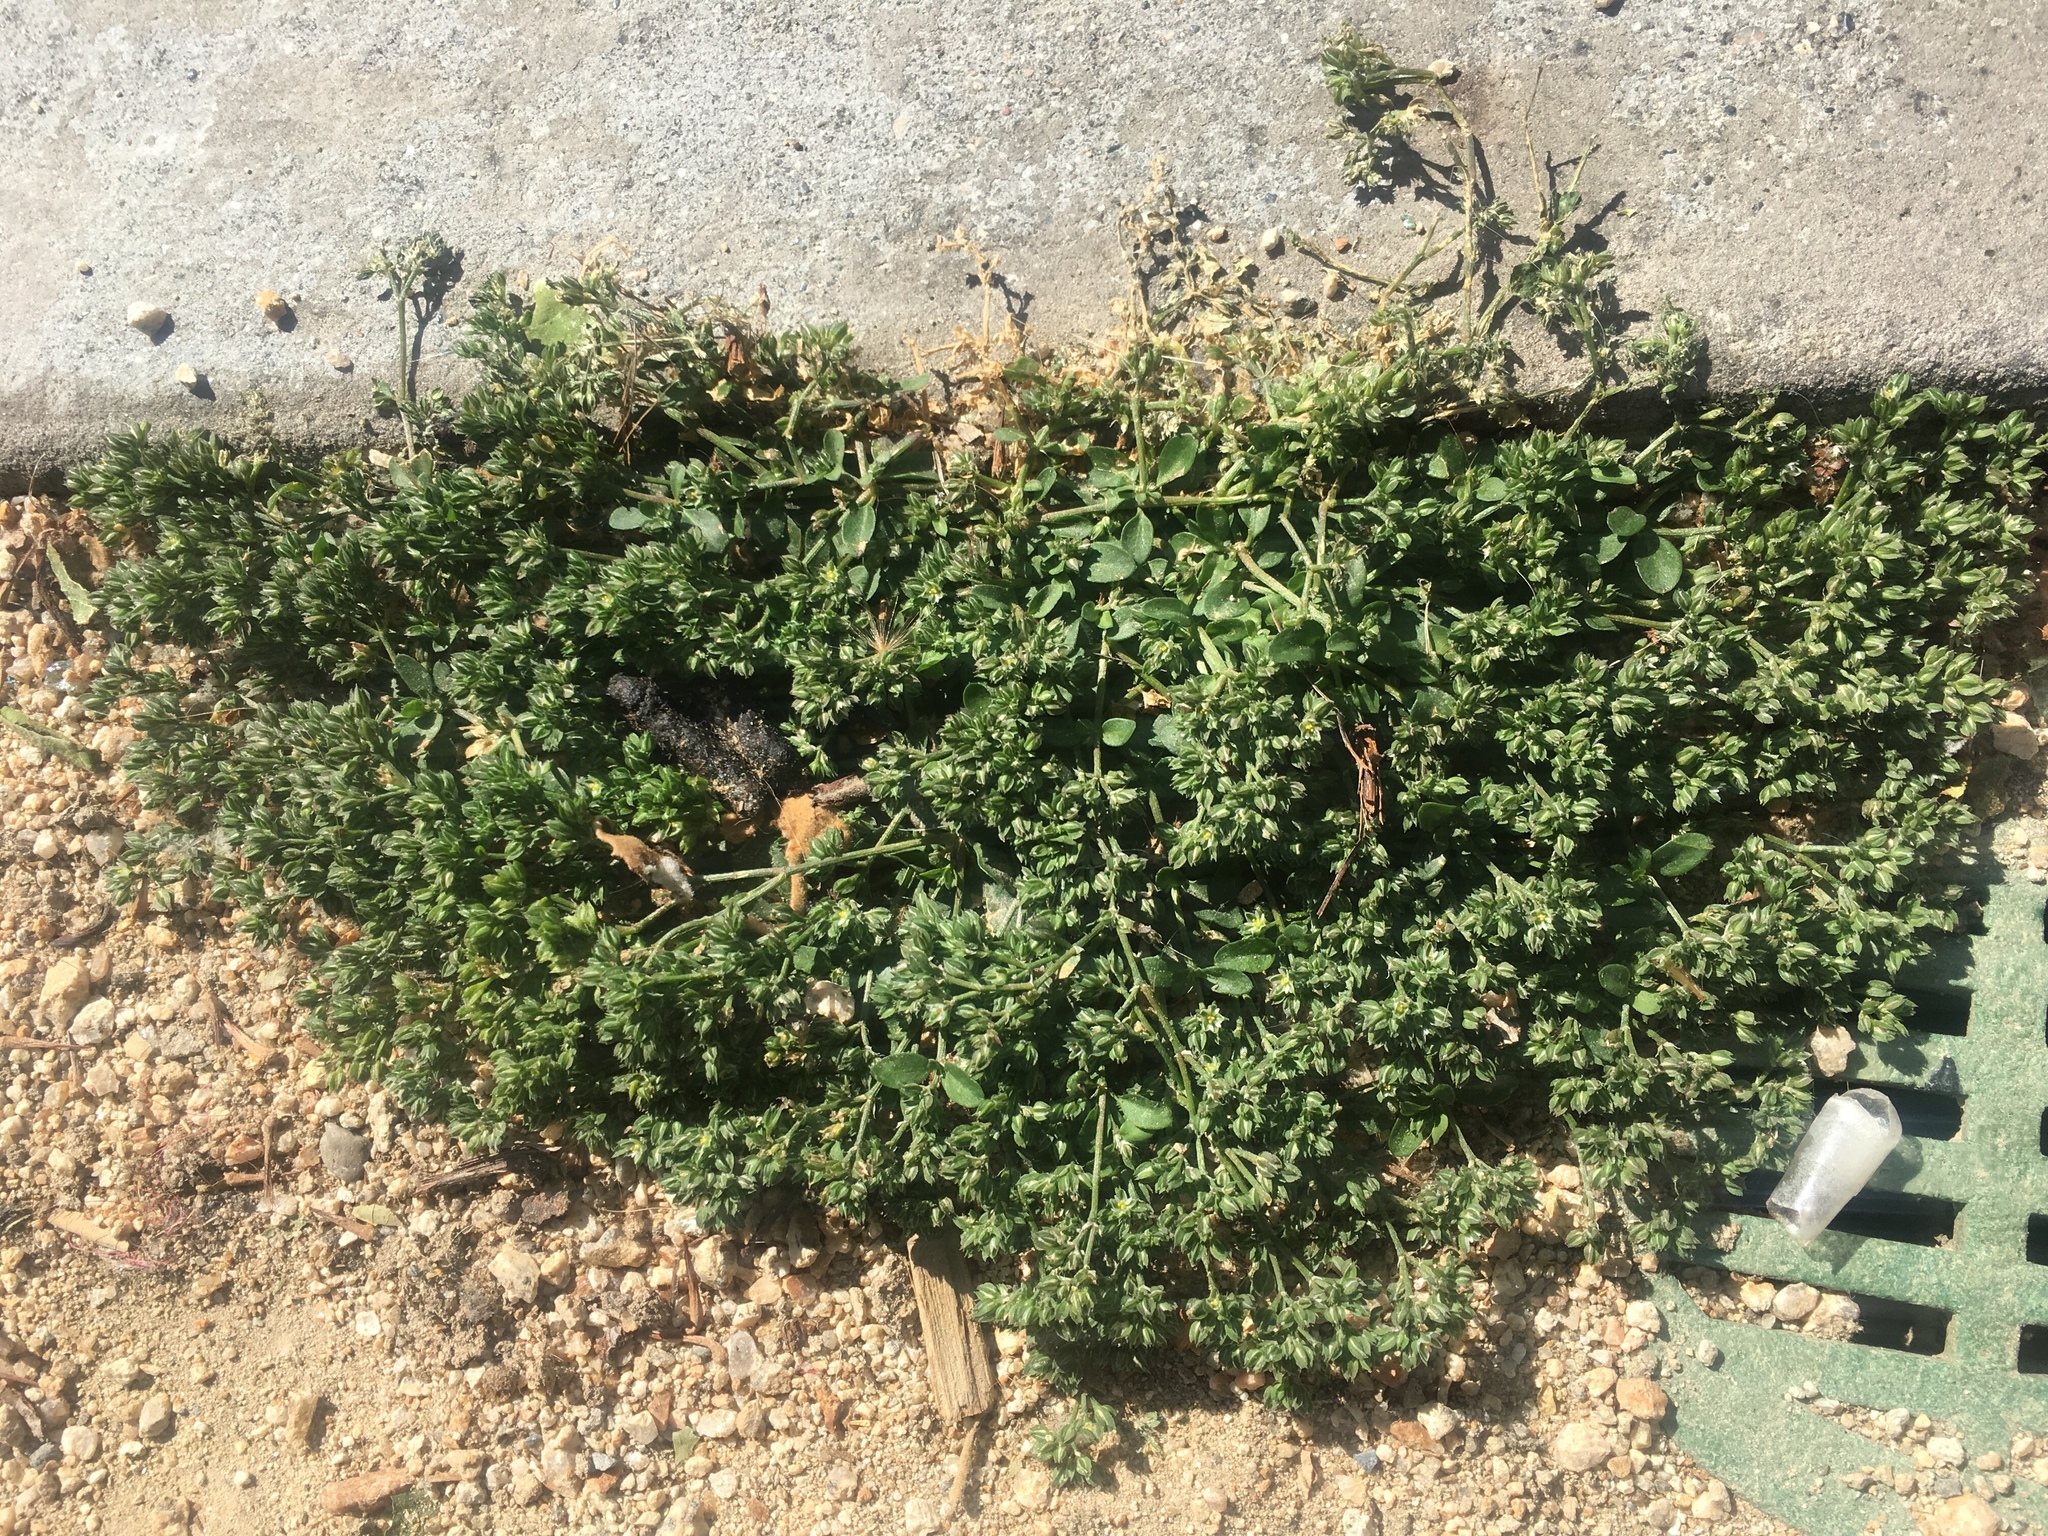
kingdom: Plantae
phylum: Tracheophyta
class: Magnoliopsida
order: Caryophyllales
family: Caryophyllaceae
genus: Polycarpon
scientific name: Polycarpon tetraphyllum
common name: Four-leaved all-seed
